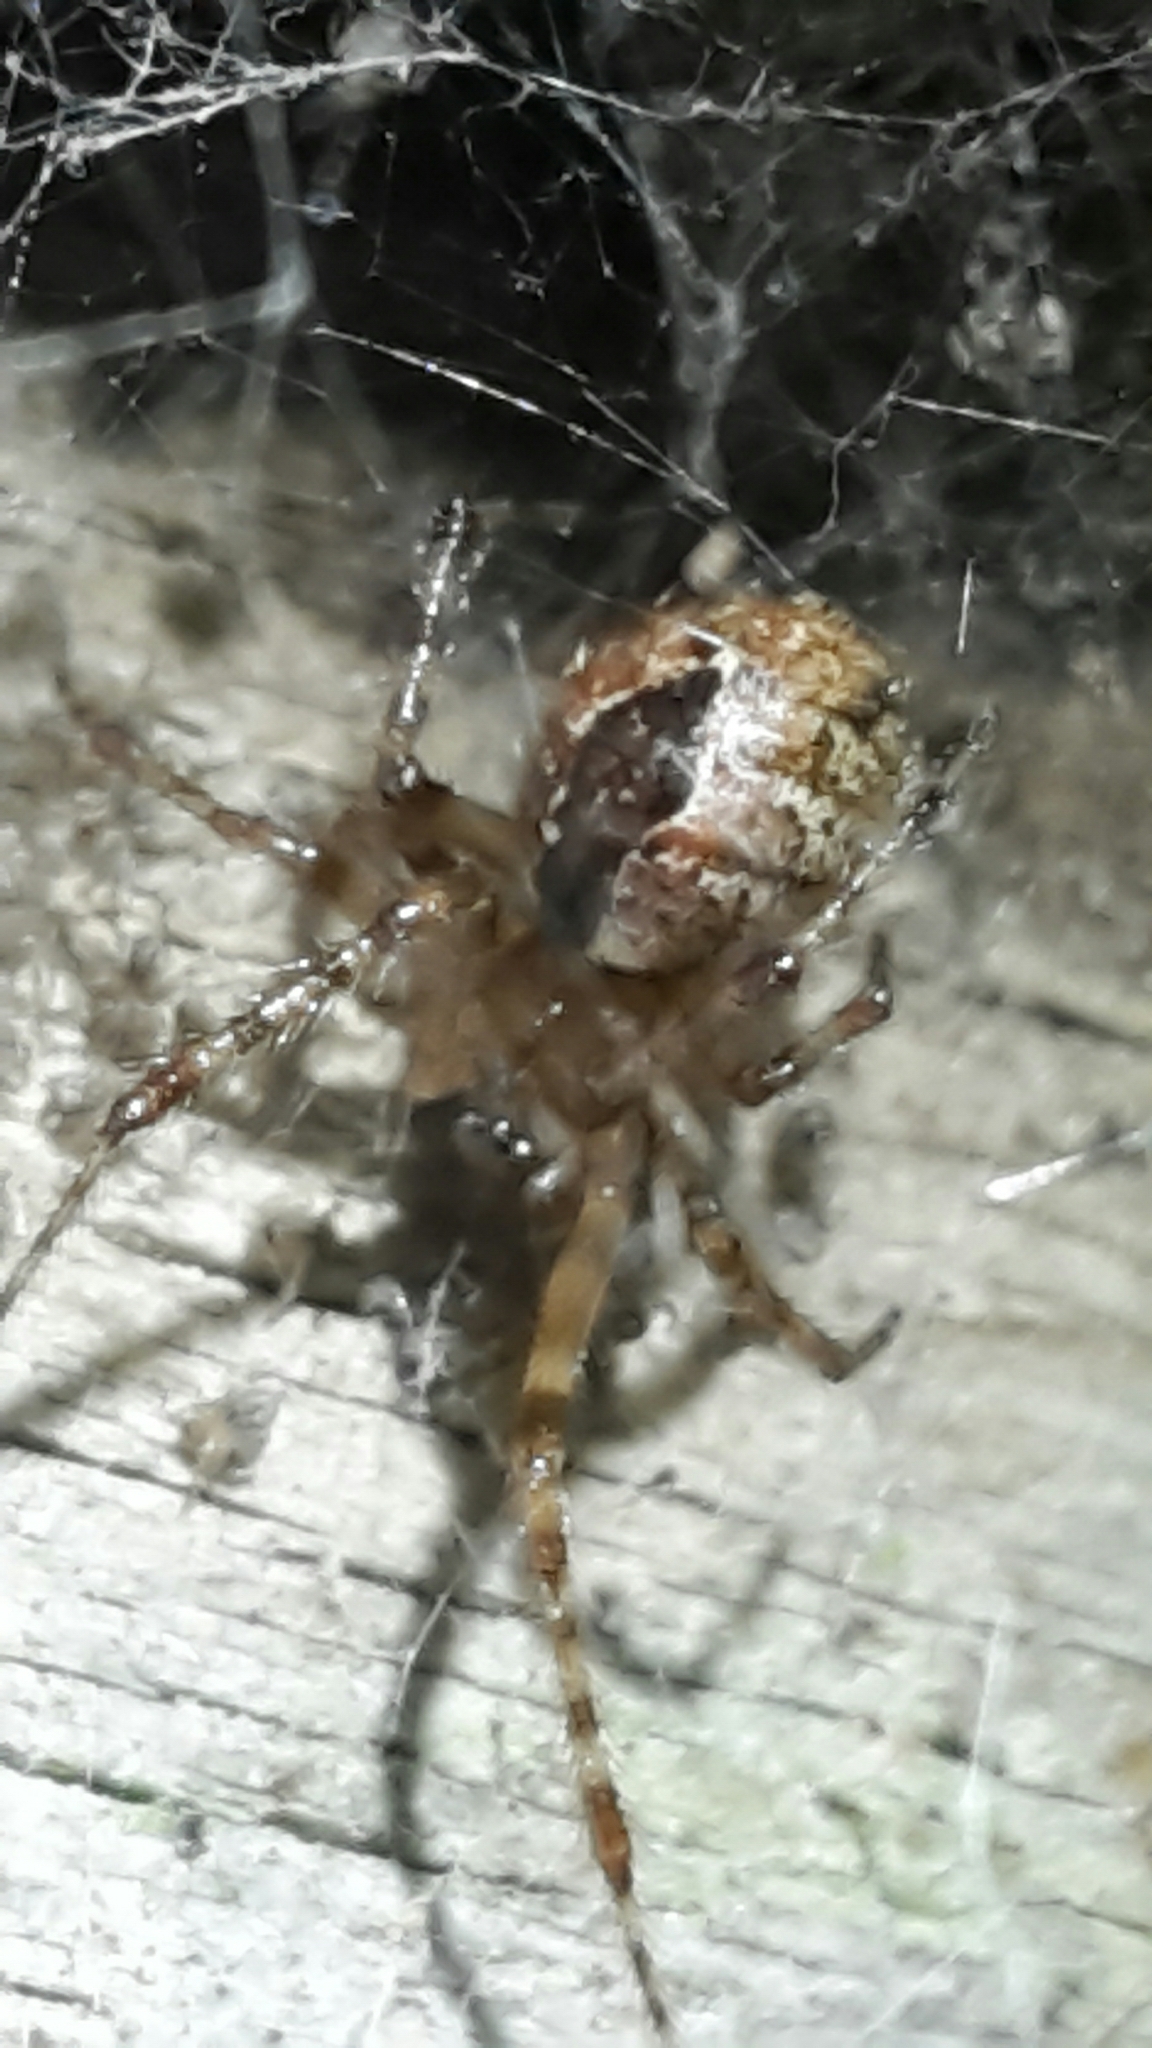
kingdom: Animalia
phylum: Arthropoda
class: Arachnida
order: Araneae
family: Theridiidae
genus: Cryptachaea
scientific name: Cryptachaea veruculata
